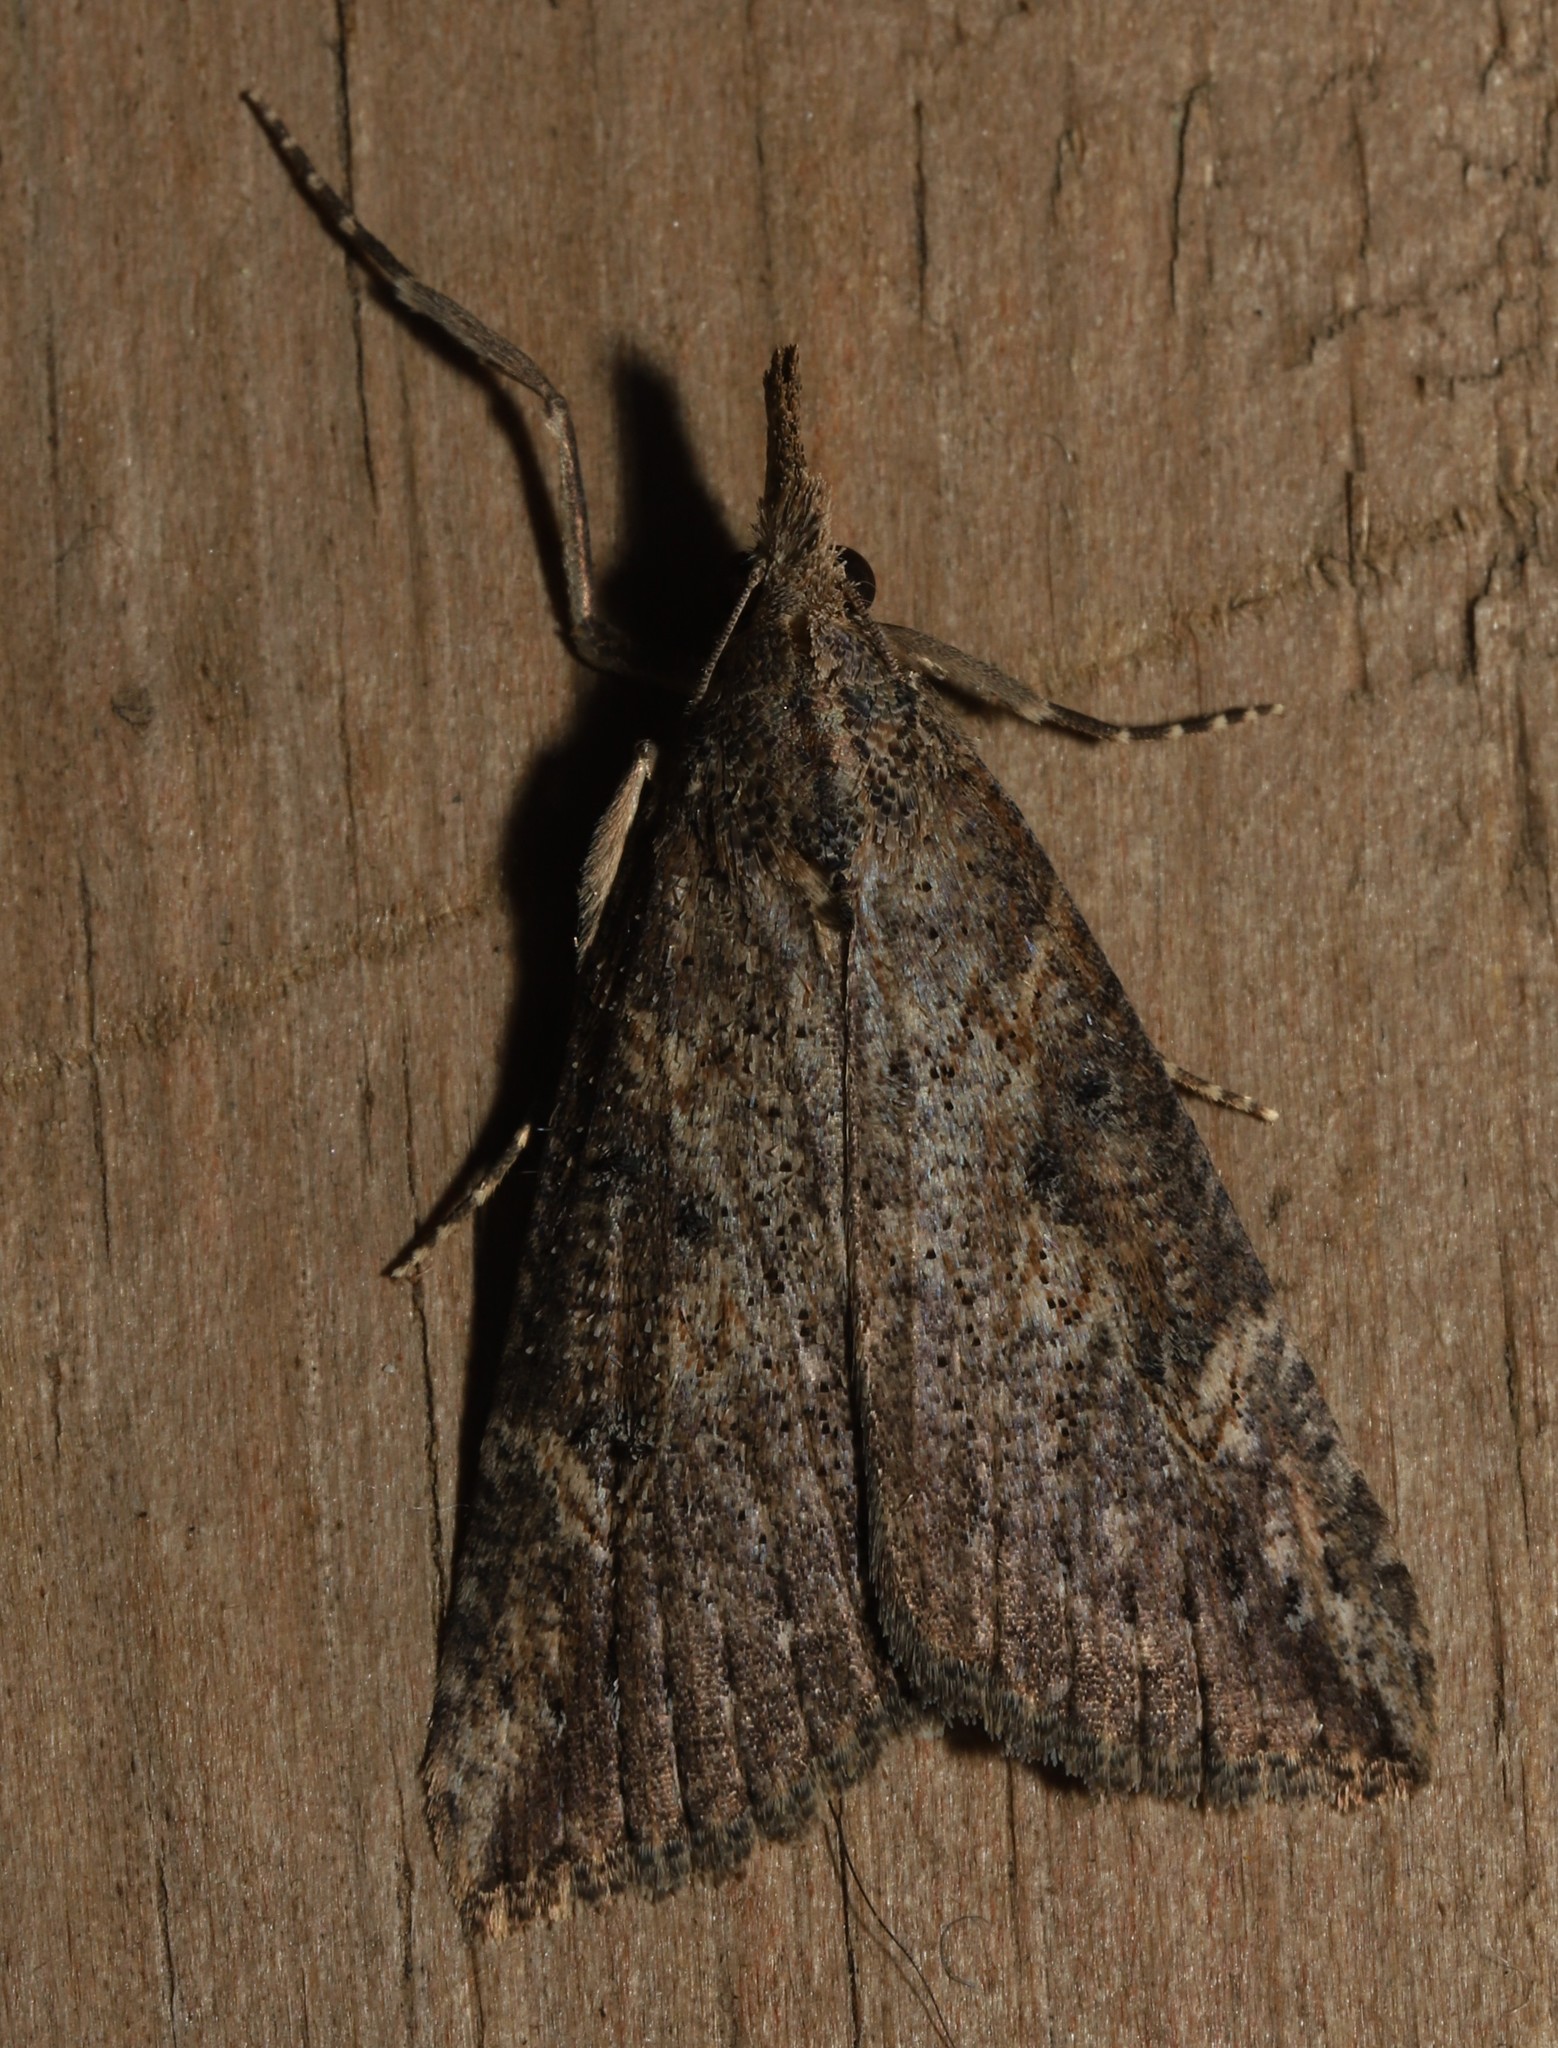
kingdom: Animalia
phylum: Arthropoda
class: Insecta
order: Lepidoptera
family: Erebidae
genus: Hypena
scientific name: Hypena humuli
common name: Hop vine snout
